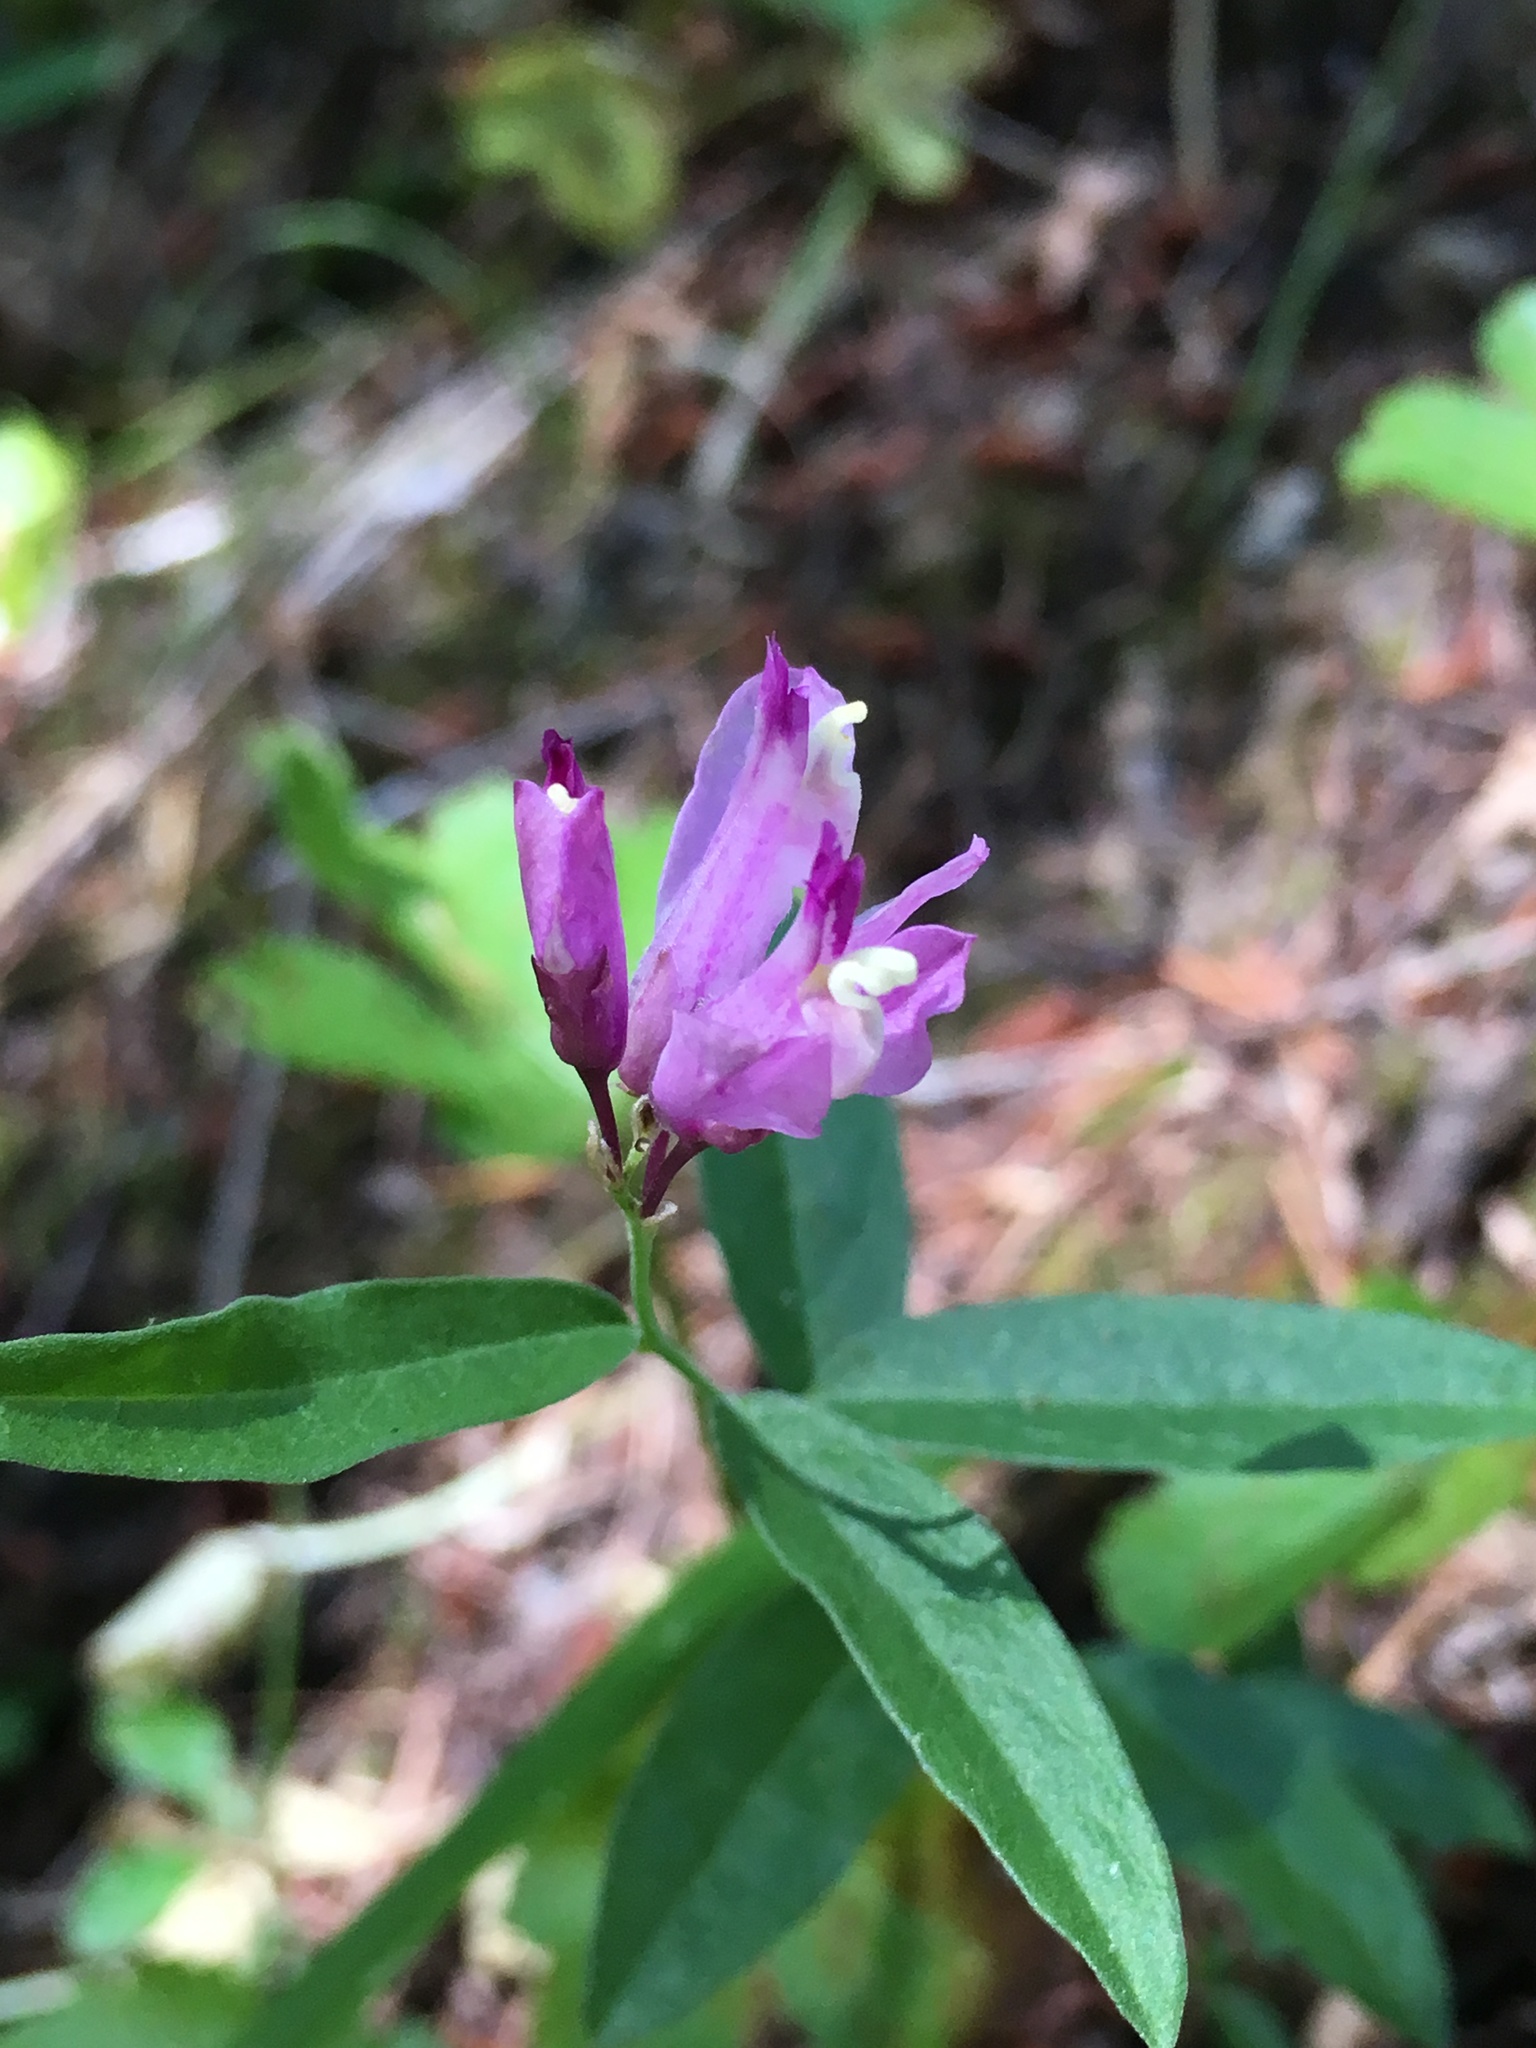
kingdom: Plantae
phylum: Tracheophyta
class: Magnoliopsida
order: Fabales
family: Polygalaceae
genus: Rhinotropis
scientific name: Rhinotropis californica
